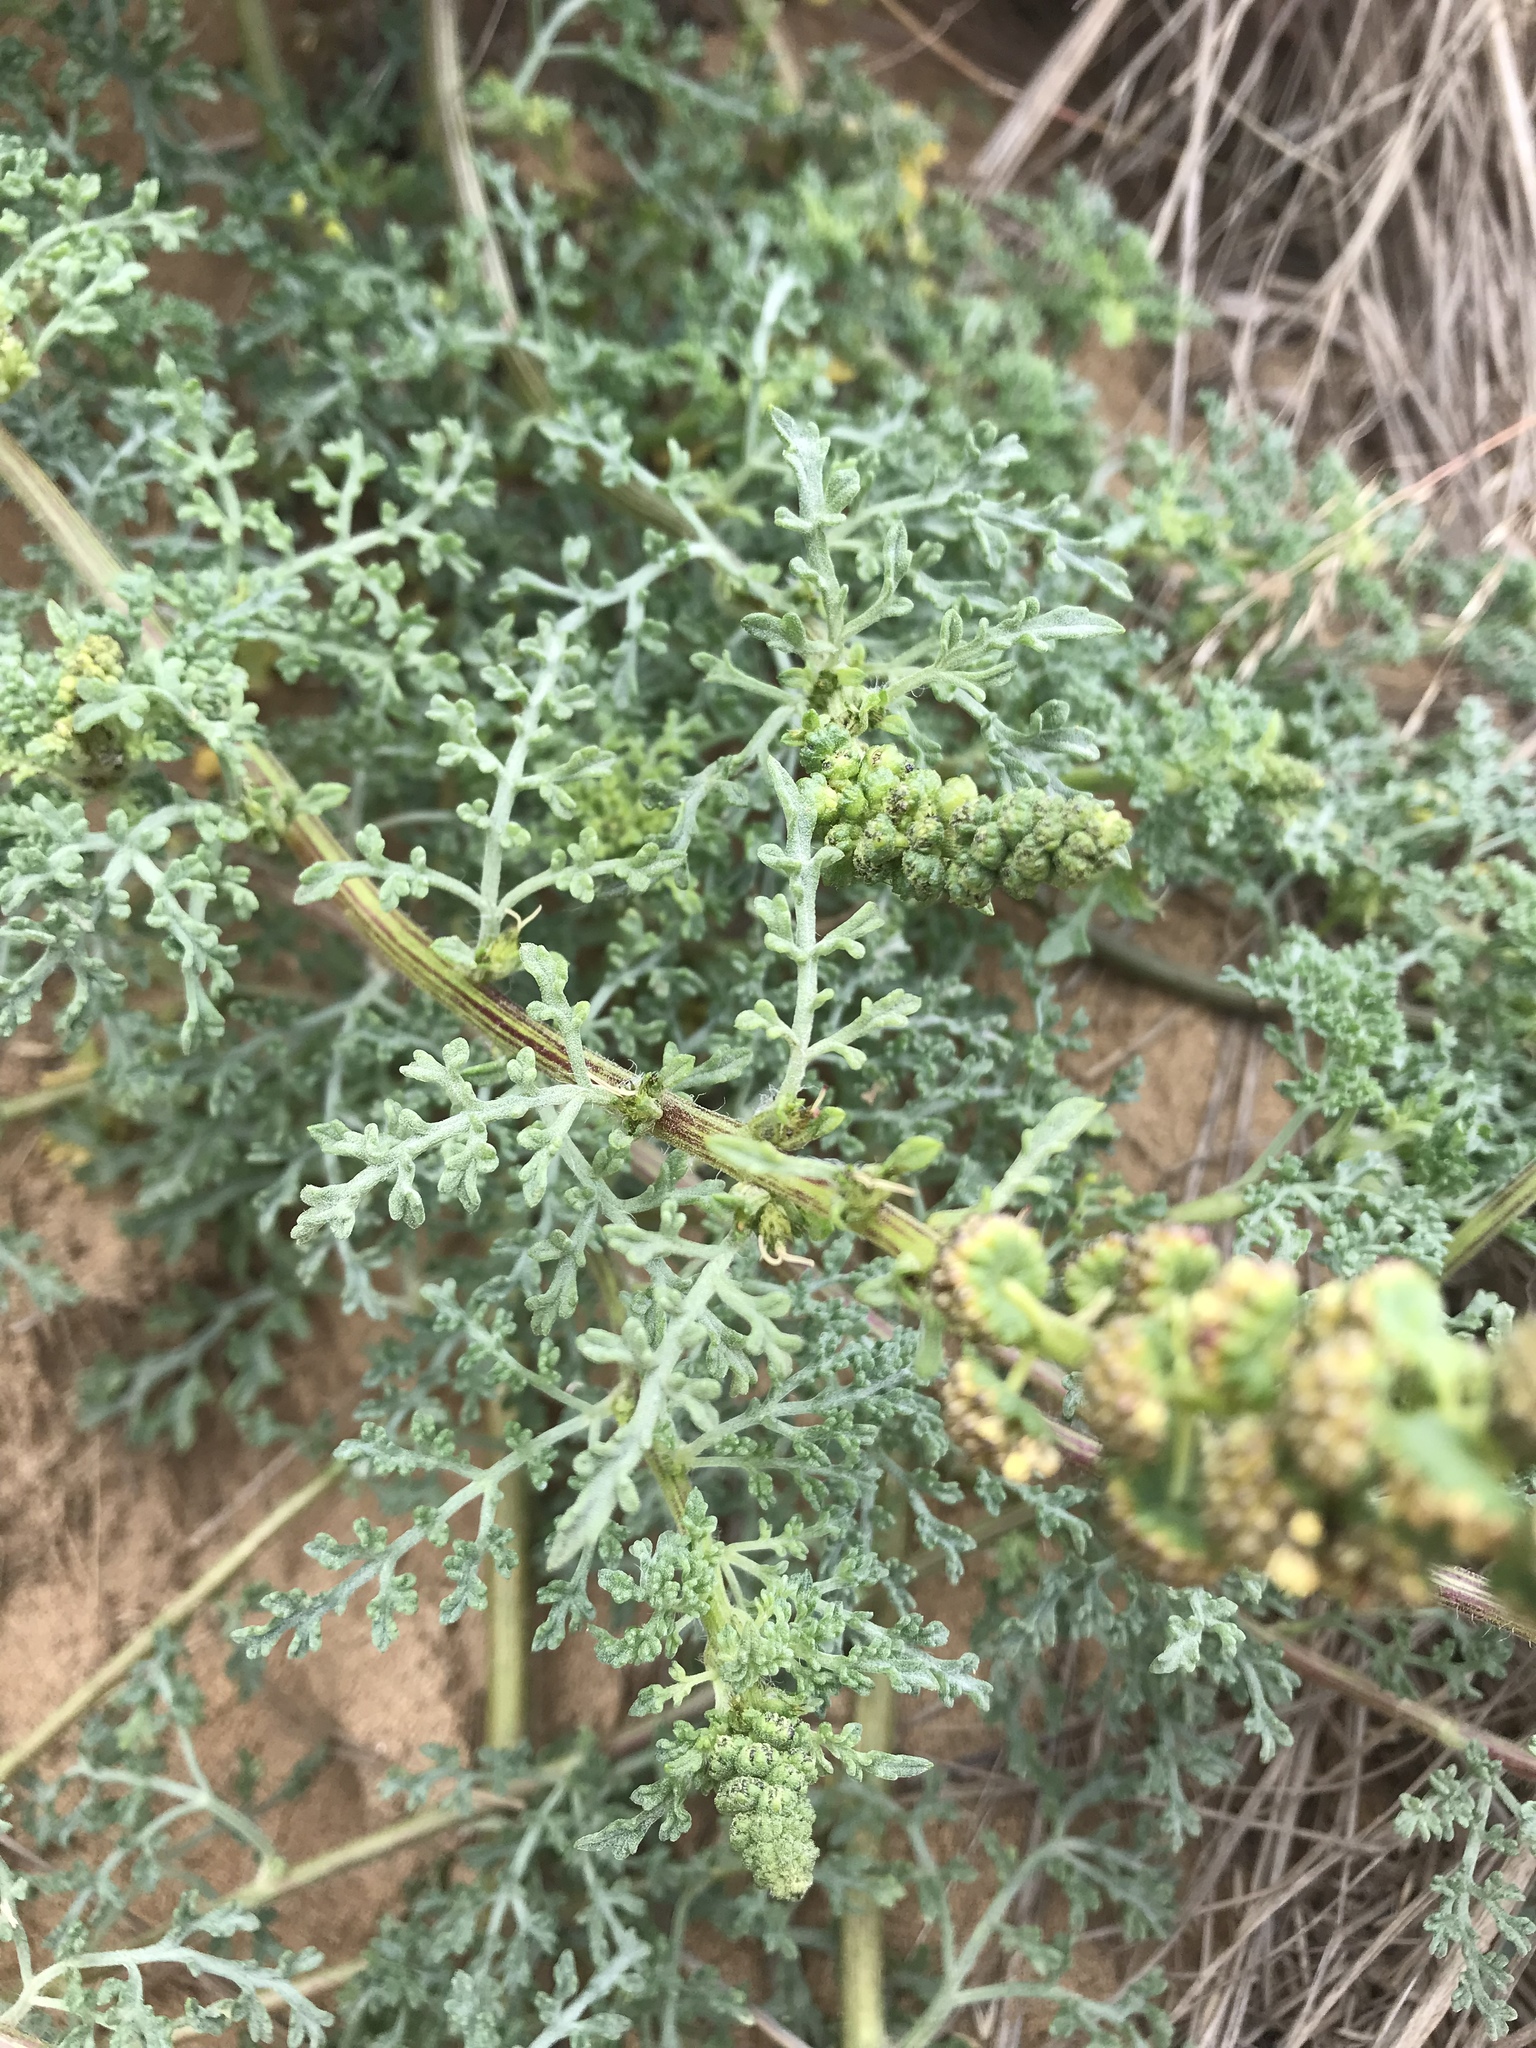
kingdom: Plantae
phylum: Tracheophyta
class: Magnoliopsida
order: Asterales
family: Asteraceae
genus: Ambrosia
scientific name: Ambrosia chamissonis
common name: Beachbur
